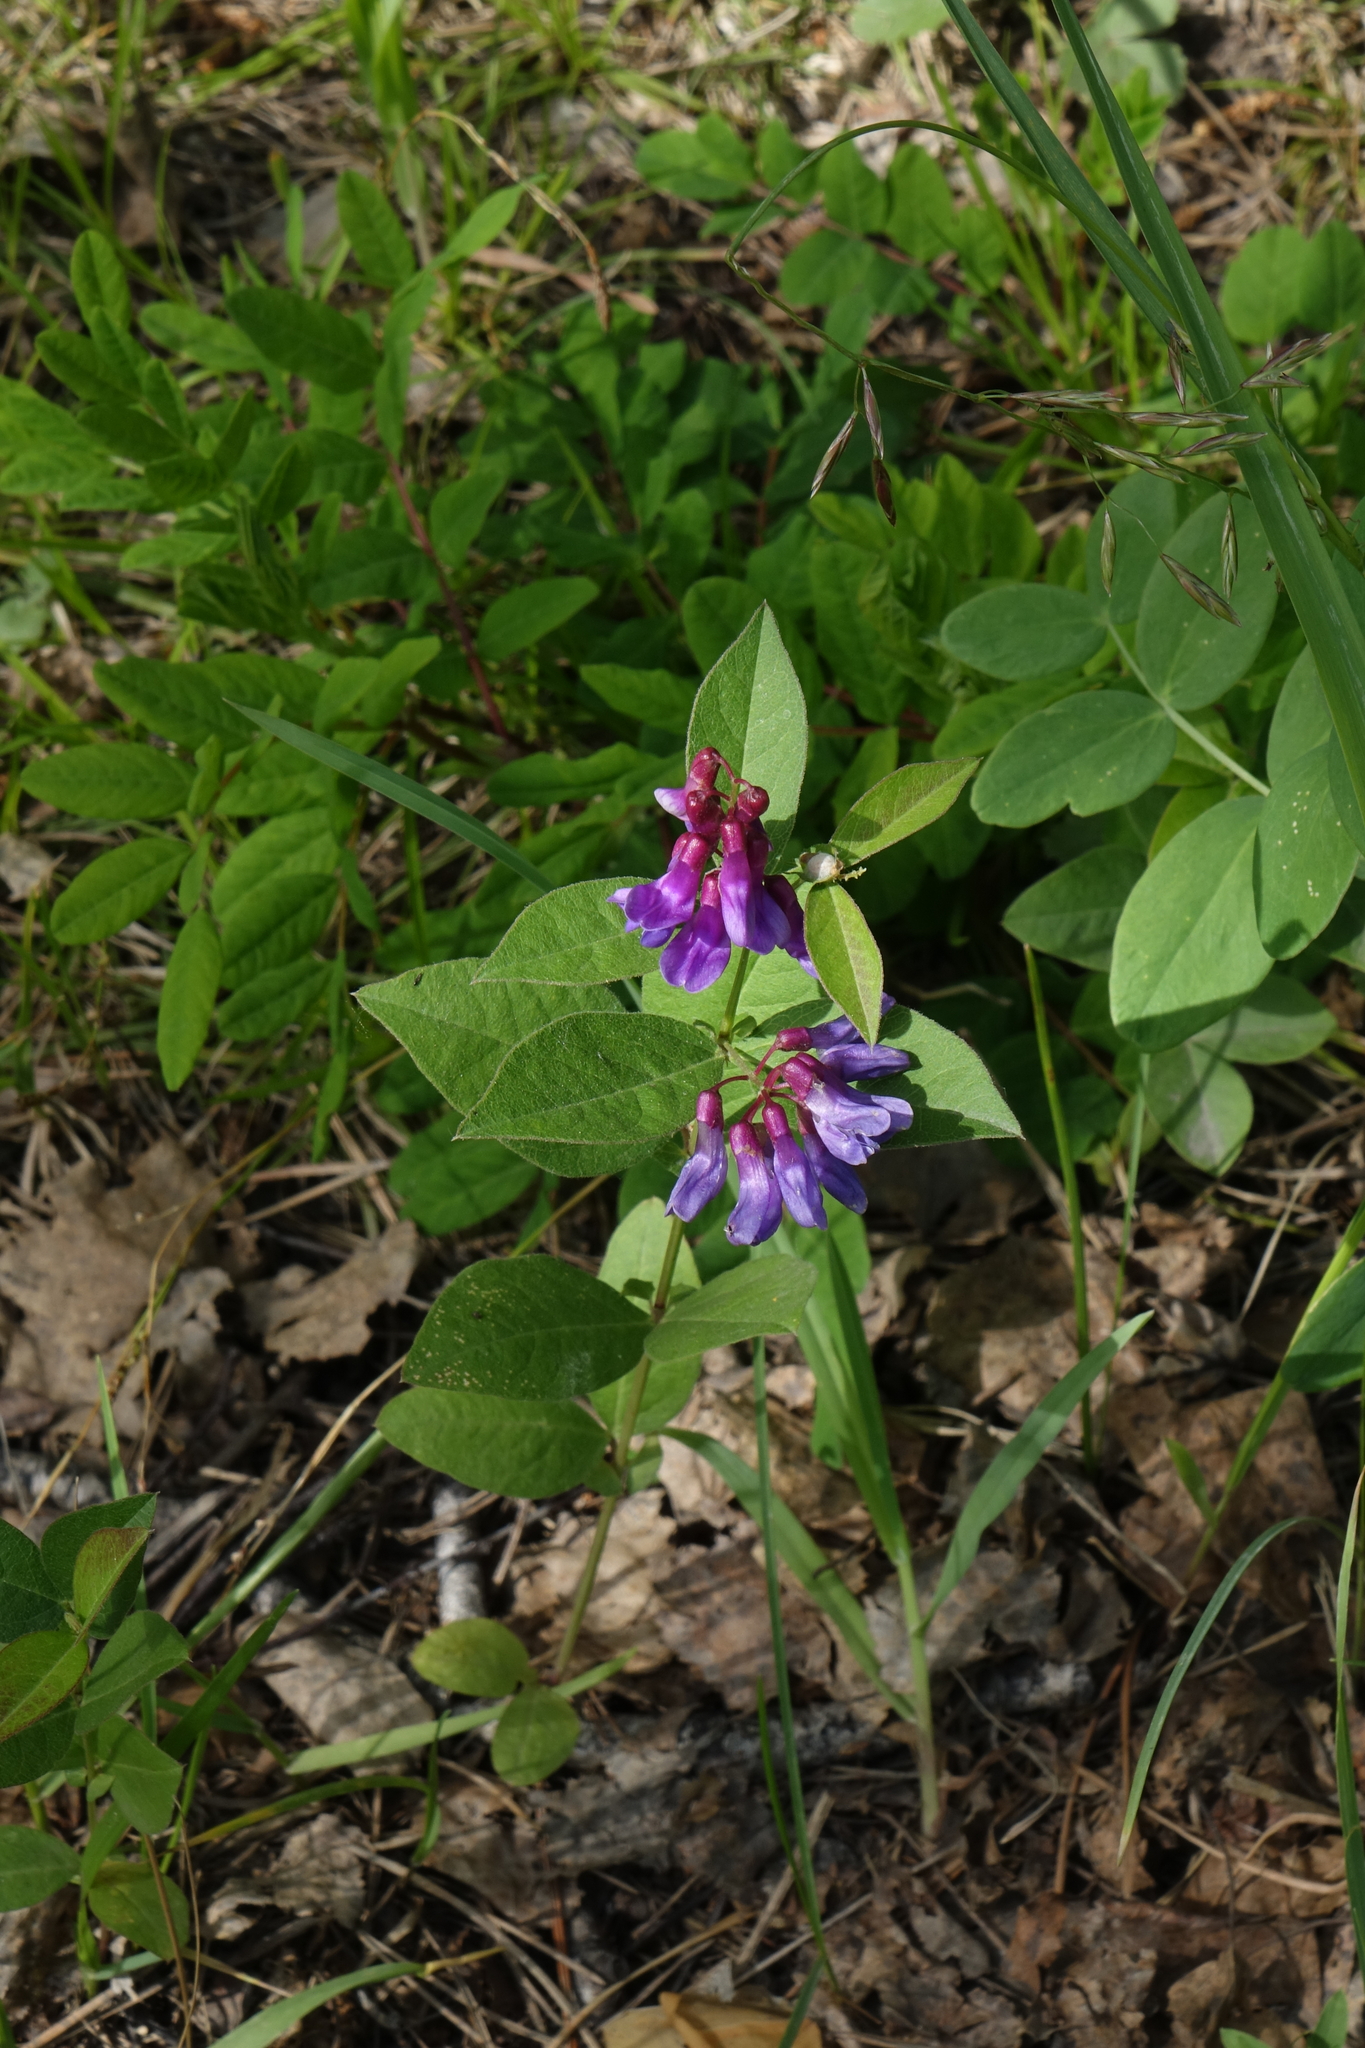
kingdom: Plantae
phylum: Tracheophyta
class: Magnoliopsida
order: Fabales
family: Fabaceae
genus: Vicia
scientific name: Vicia unijuga
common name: Two-leaf vetch
